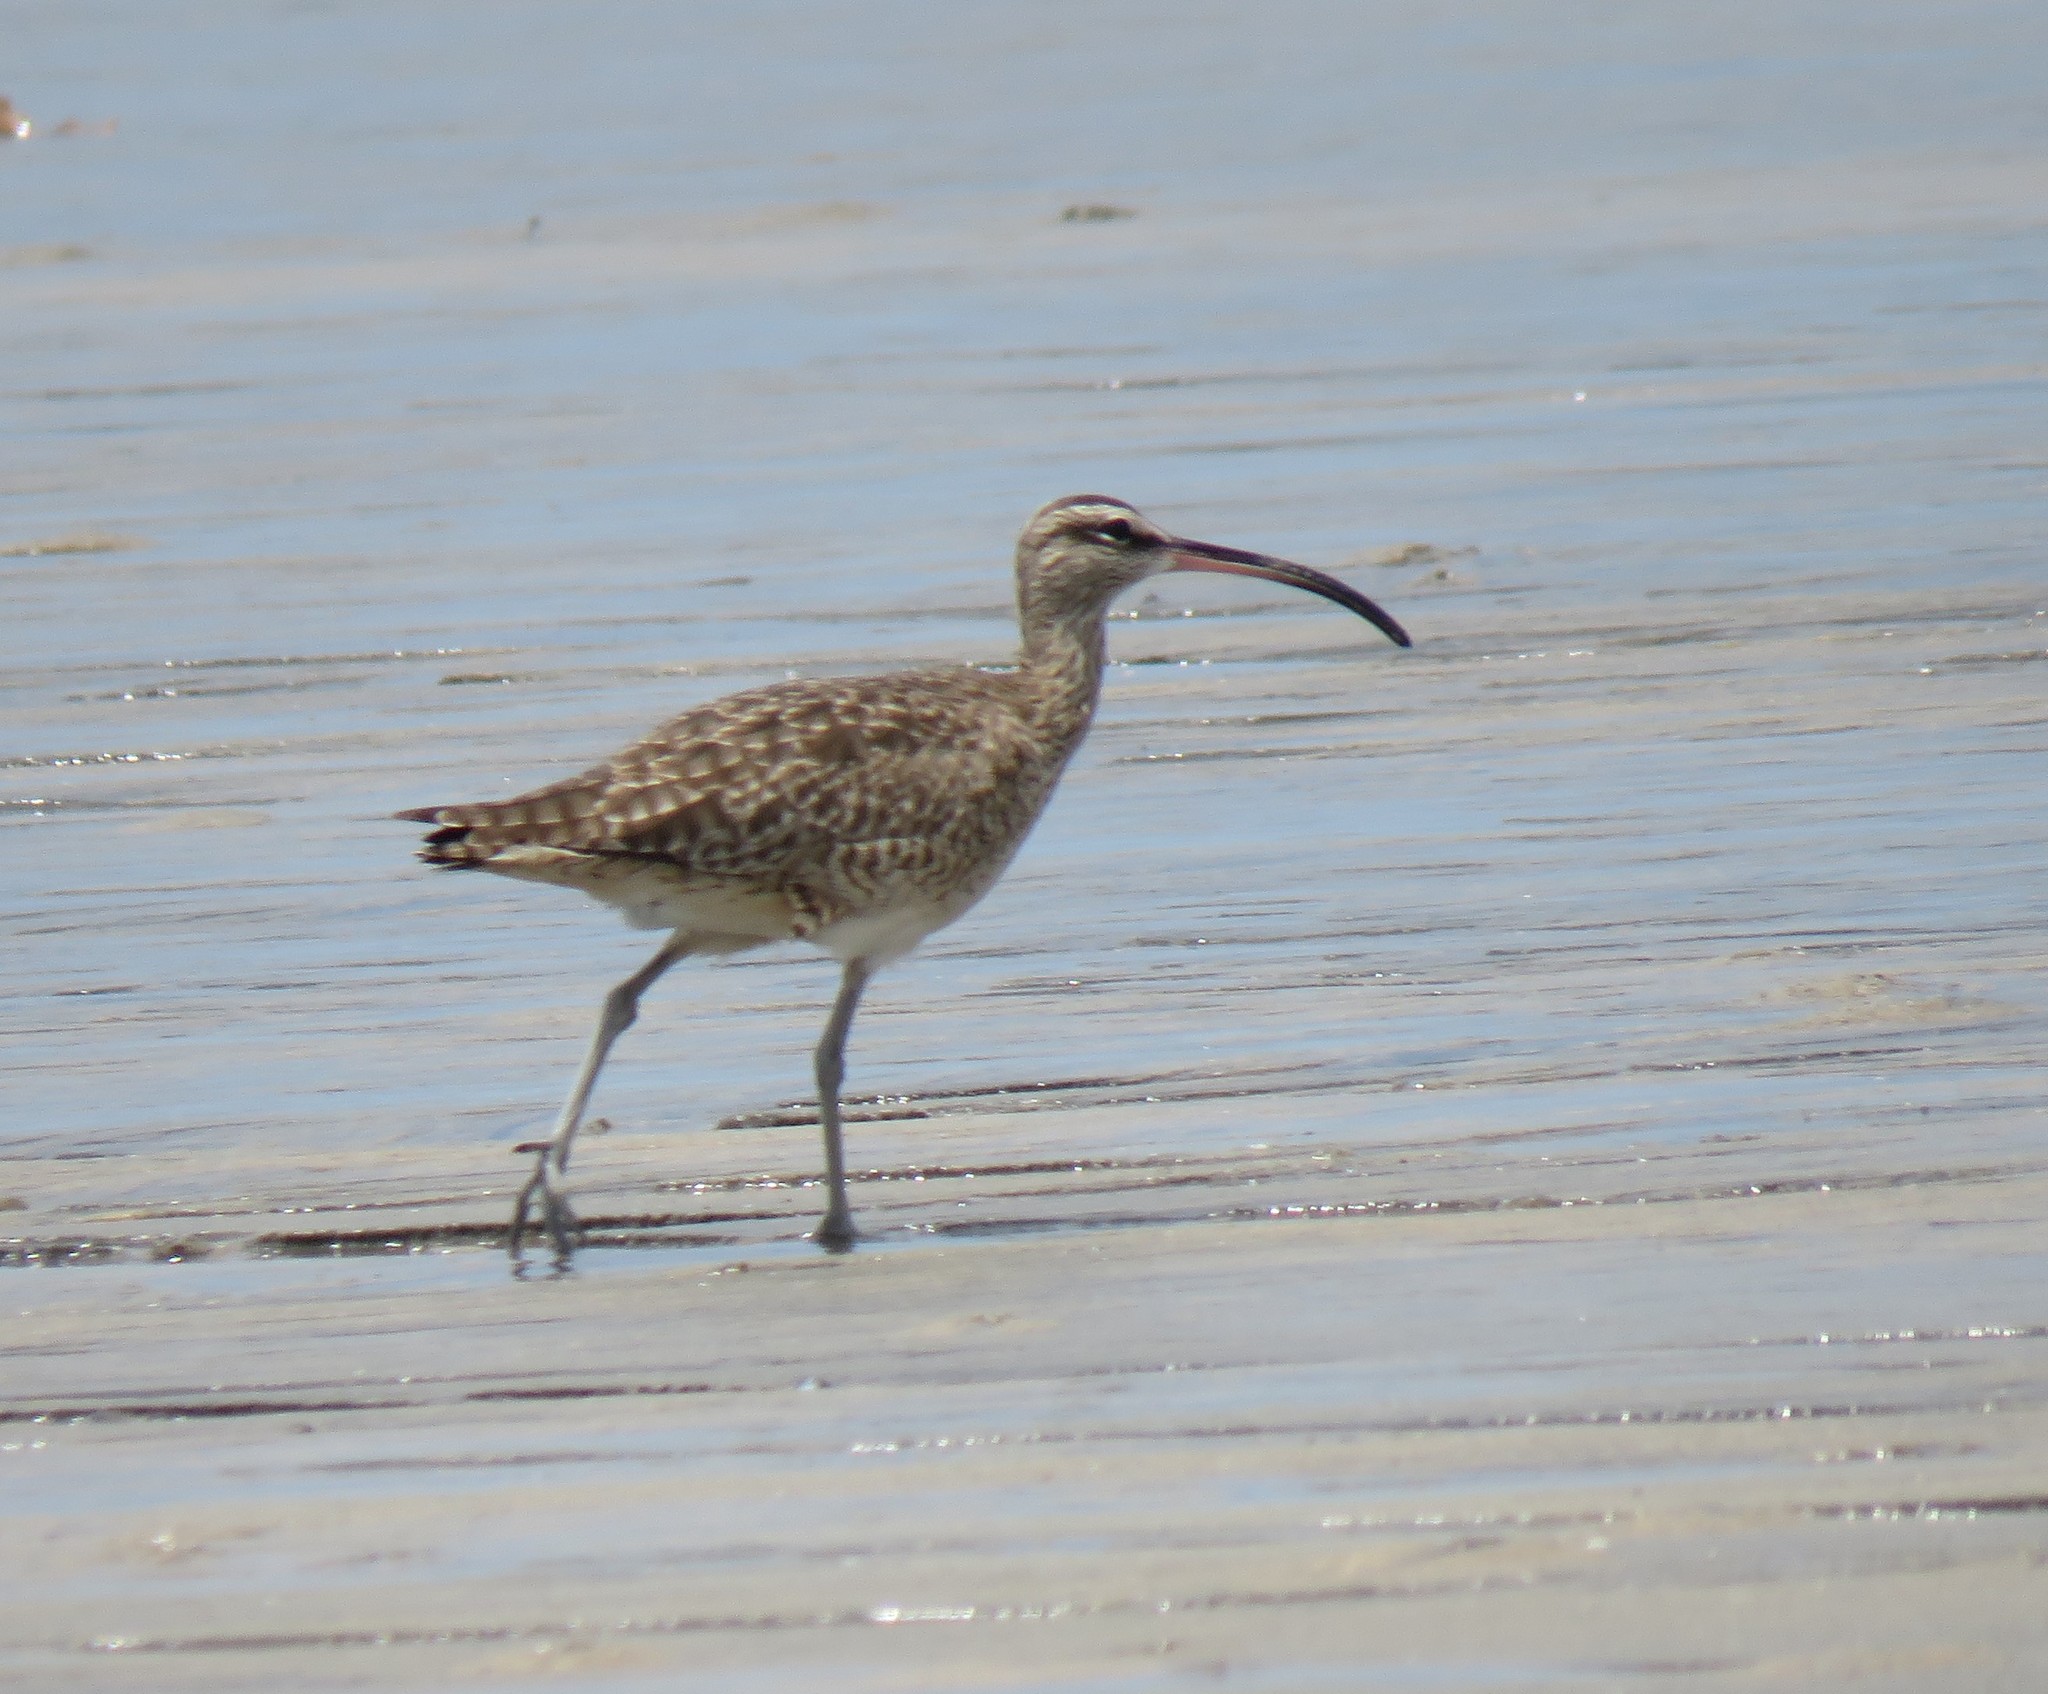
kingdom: Animalia
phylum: Chordata
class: Aves
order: Charadriiformes
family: Scolopacidae
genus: Numenius
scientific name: Numenius phaeopus
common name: Whimbrel
